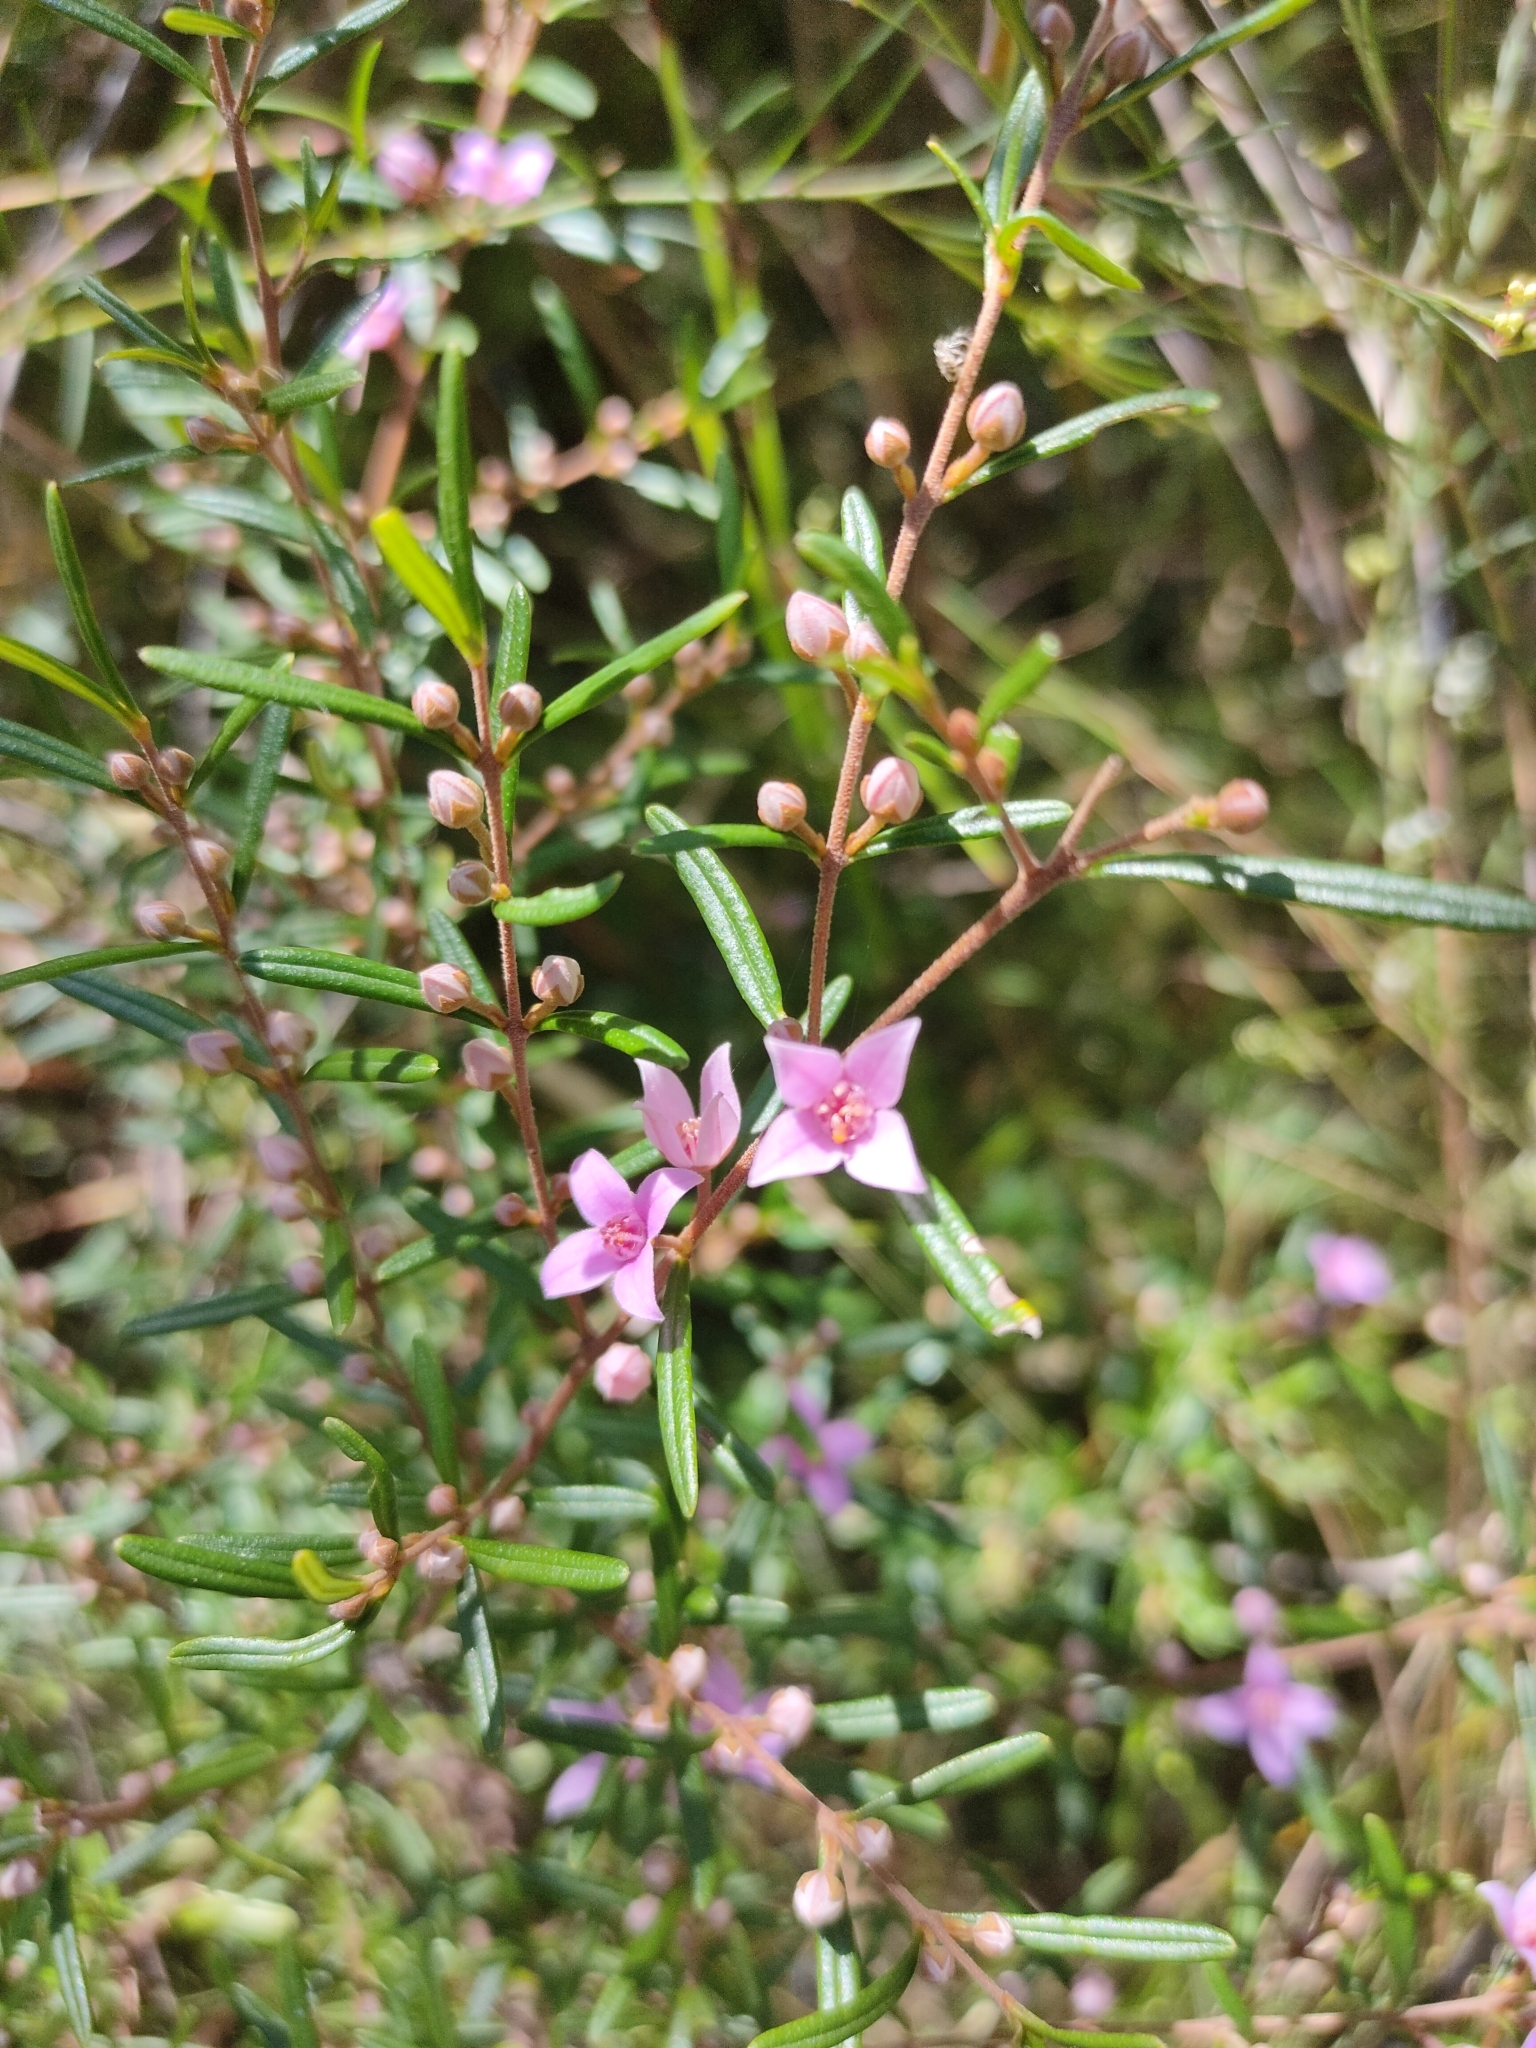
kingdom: Plantae
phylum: Tracheophyta
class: Magnoliopsida
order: Sapindales
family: Rutaceae
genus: Boronia
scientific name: Boronia rosmarinifolia
